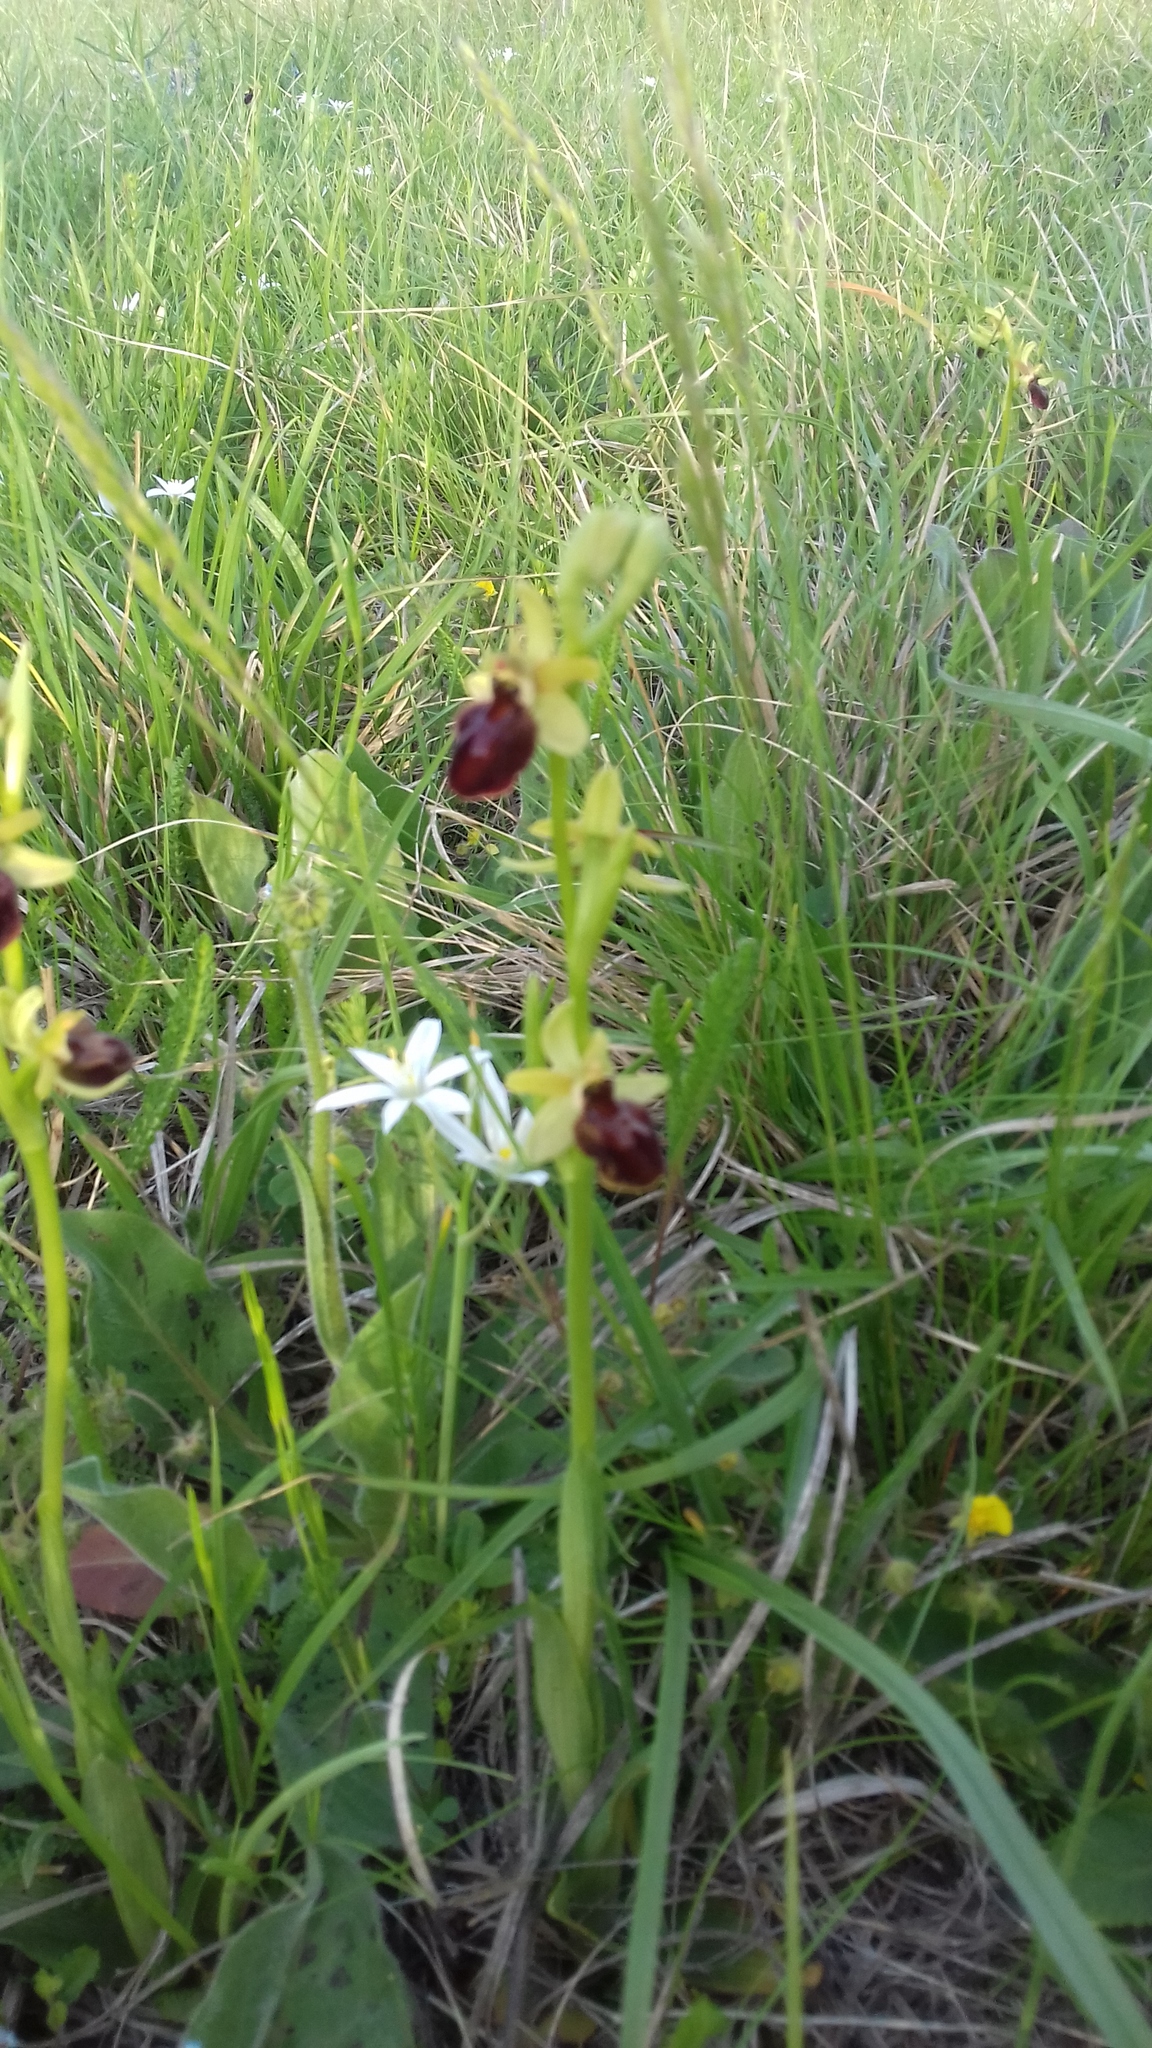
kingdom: Plantae
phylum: Tracheophyta
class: Liliopsida
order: Asparagales
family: Orchidaceae
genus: Ophrys
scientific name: Ophrys sphegodes
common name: Early spider-orchid
